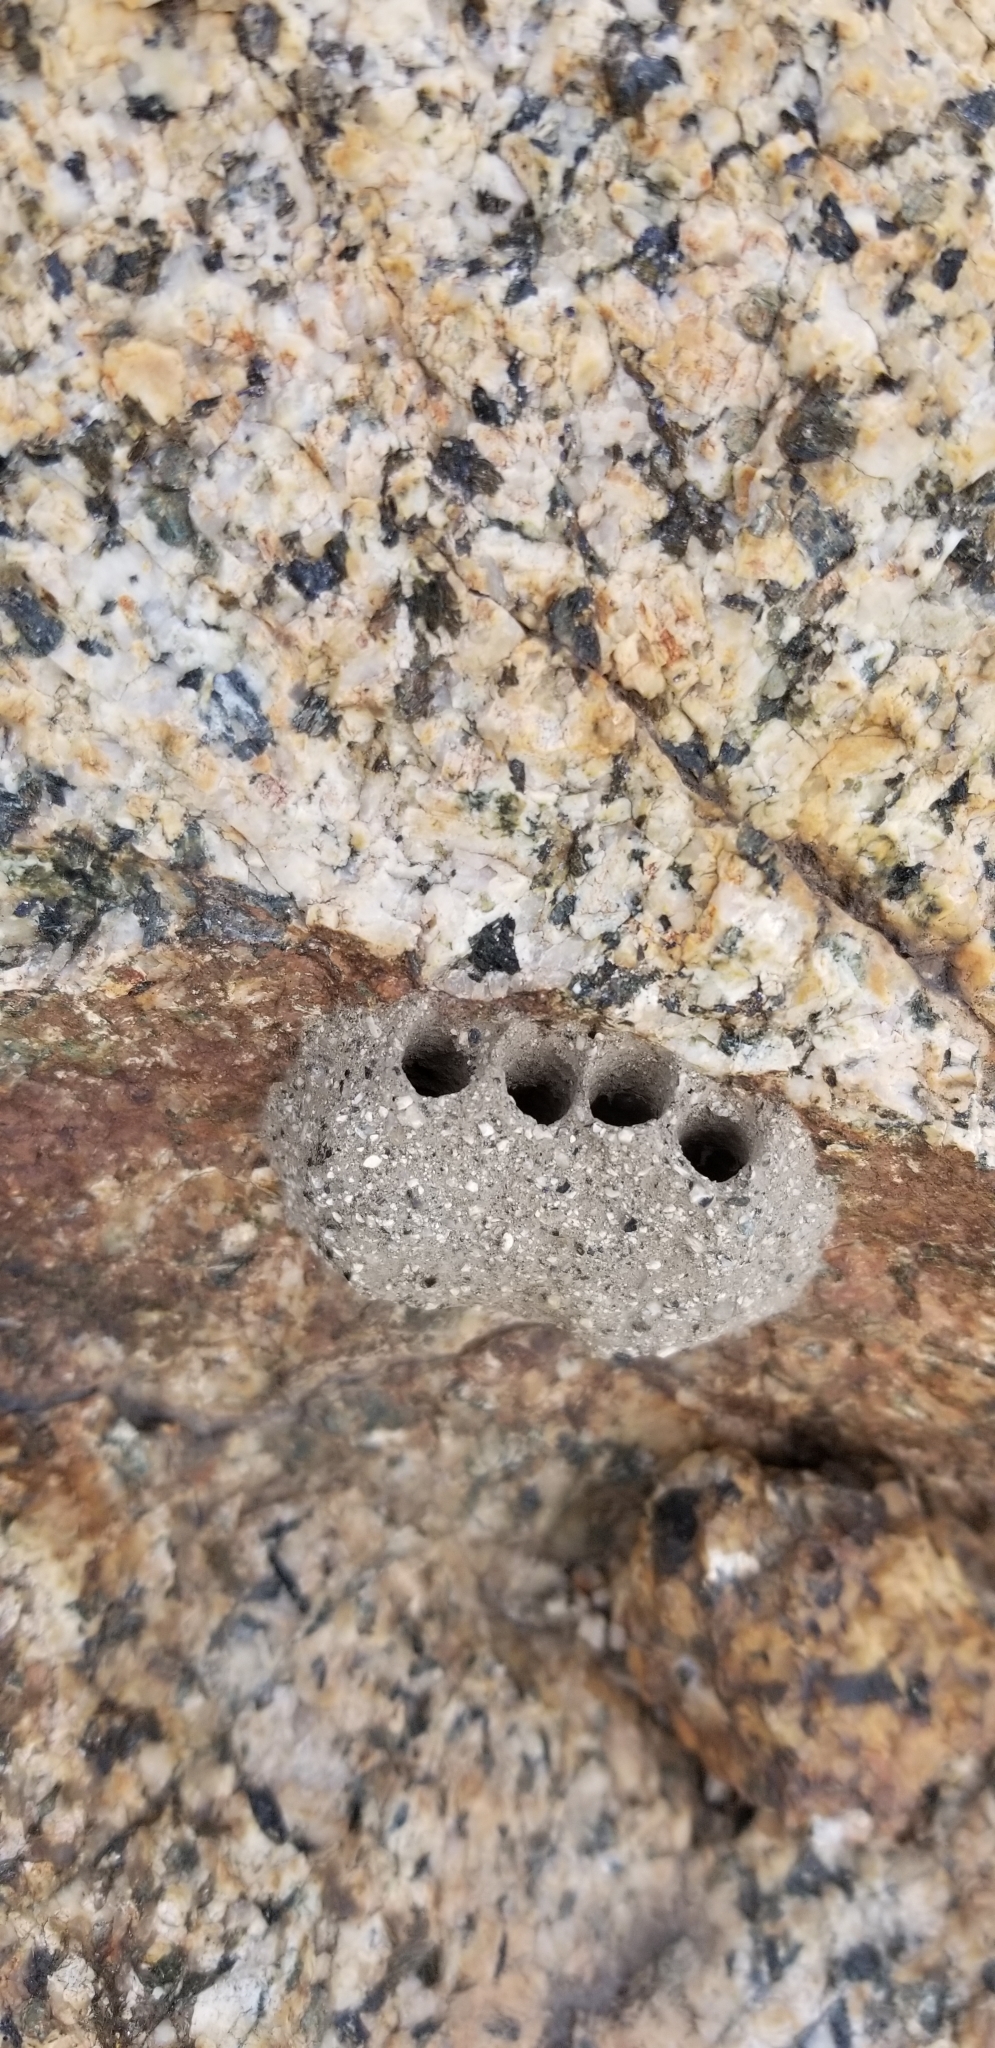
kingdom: Animalia
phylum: Arthropoda
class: Insecta
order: Hymenoptera
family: Masaridae
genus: Pseudomasaris
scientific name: Pseudomasaris
